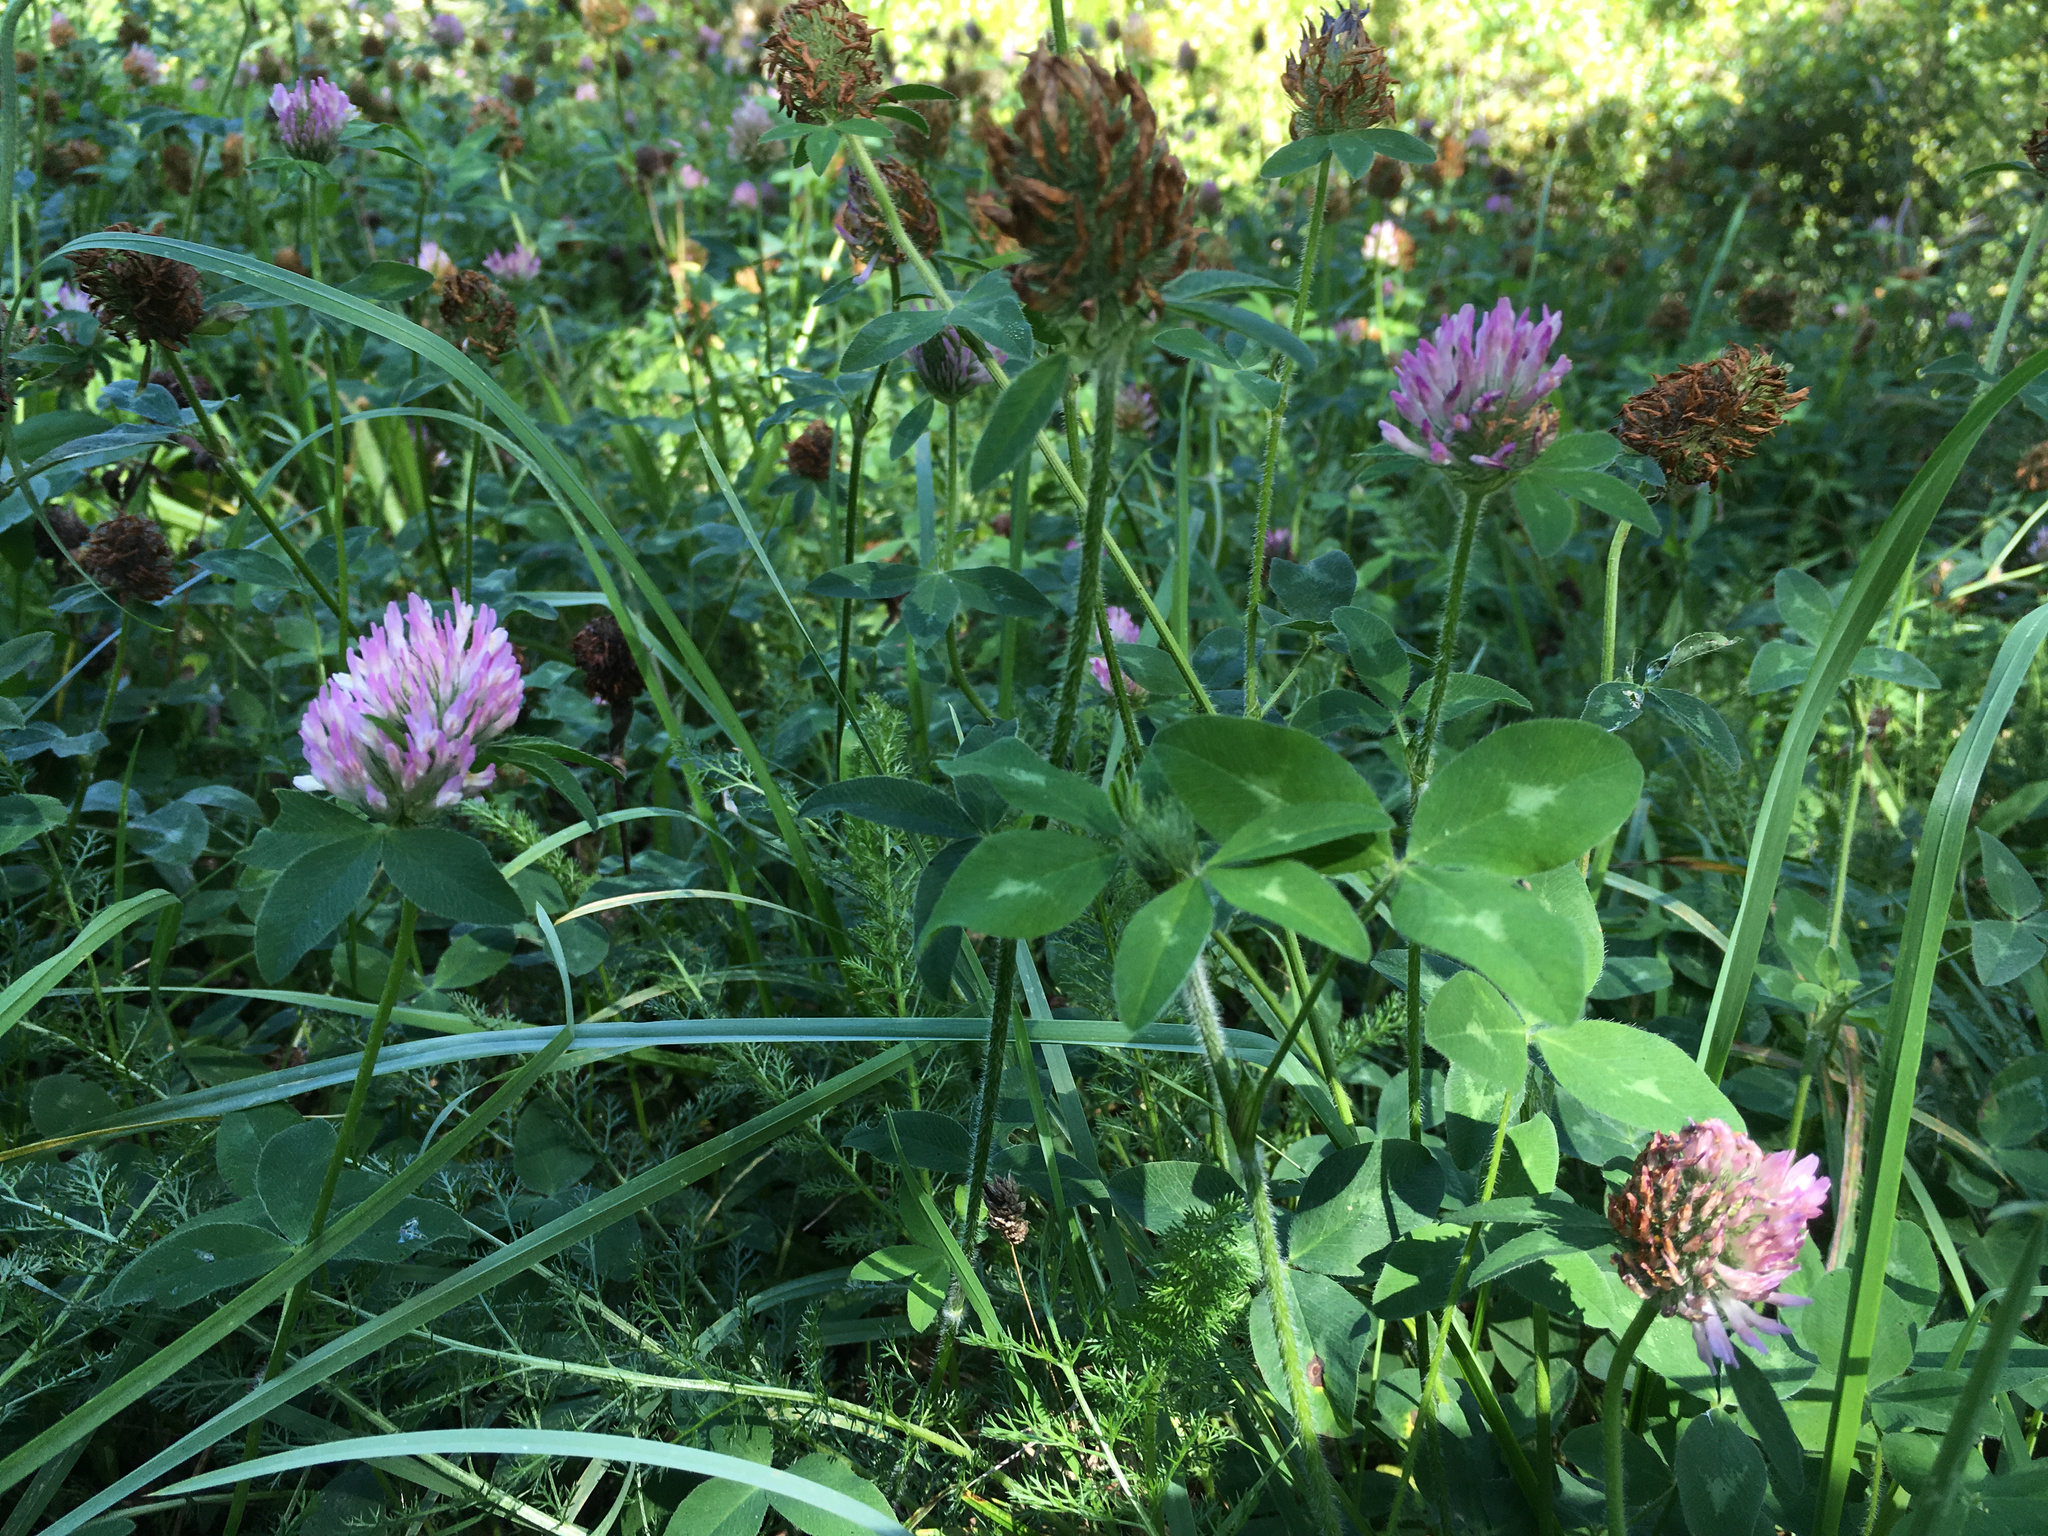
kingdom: Plantae
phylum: Tracheophyta
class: Magnoliopsida
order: Fabales
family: Fabaceae
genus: Trifolium
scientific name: Trifolium pratense
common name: Red clover
